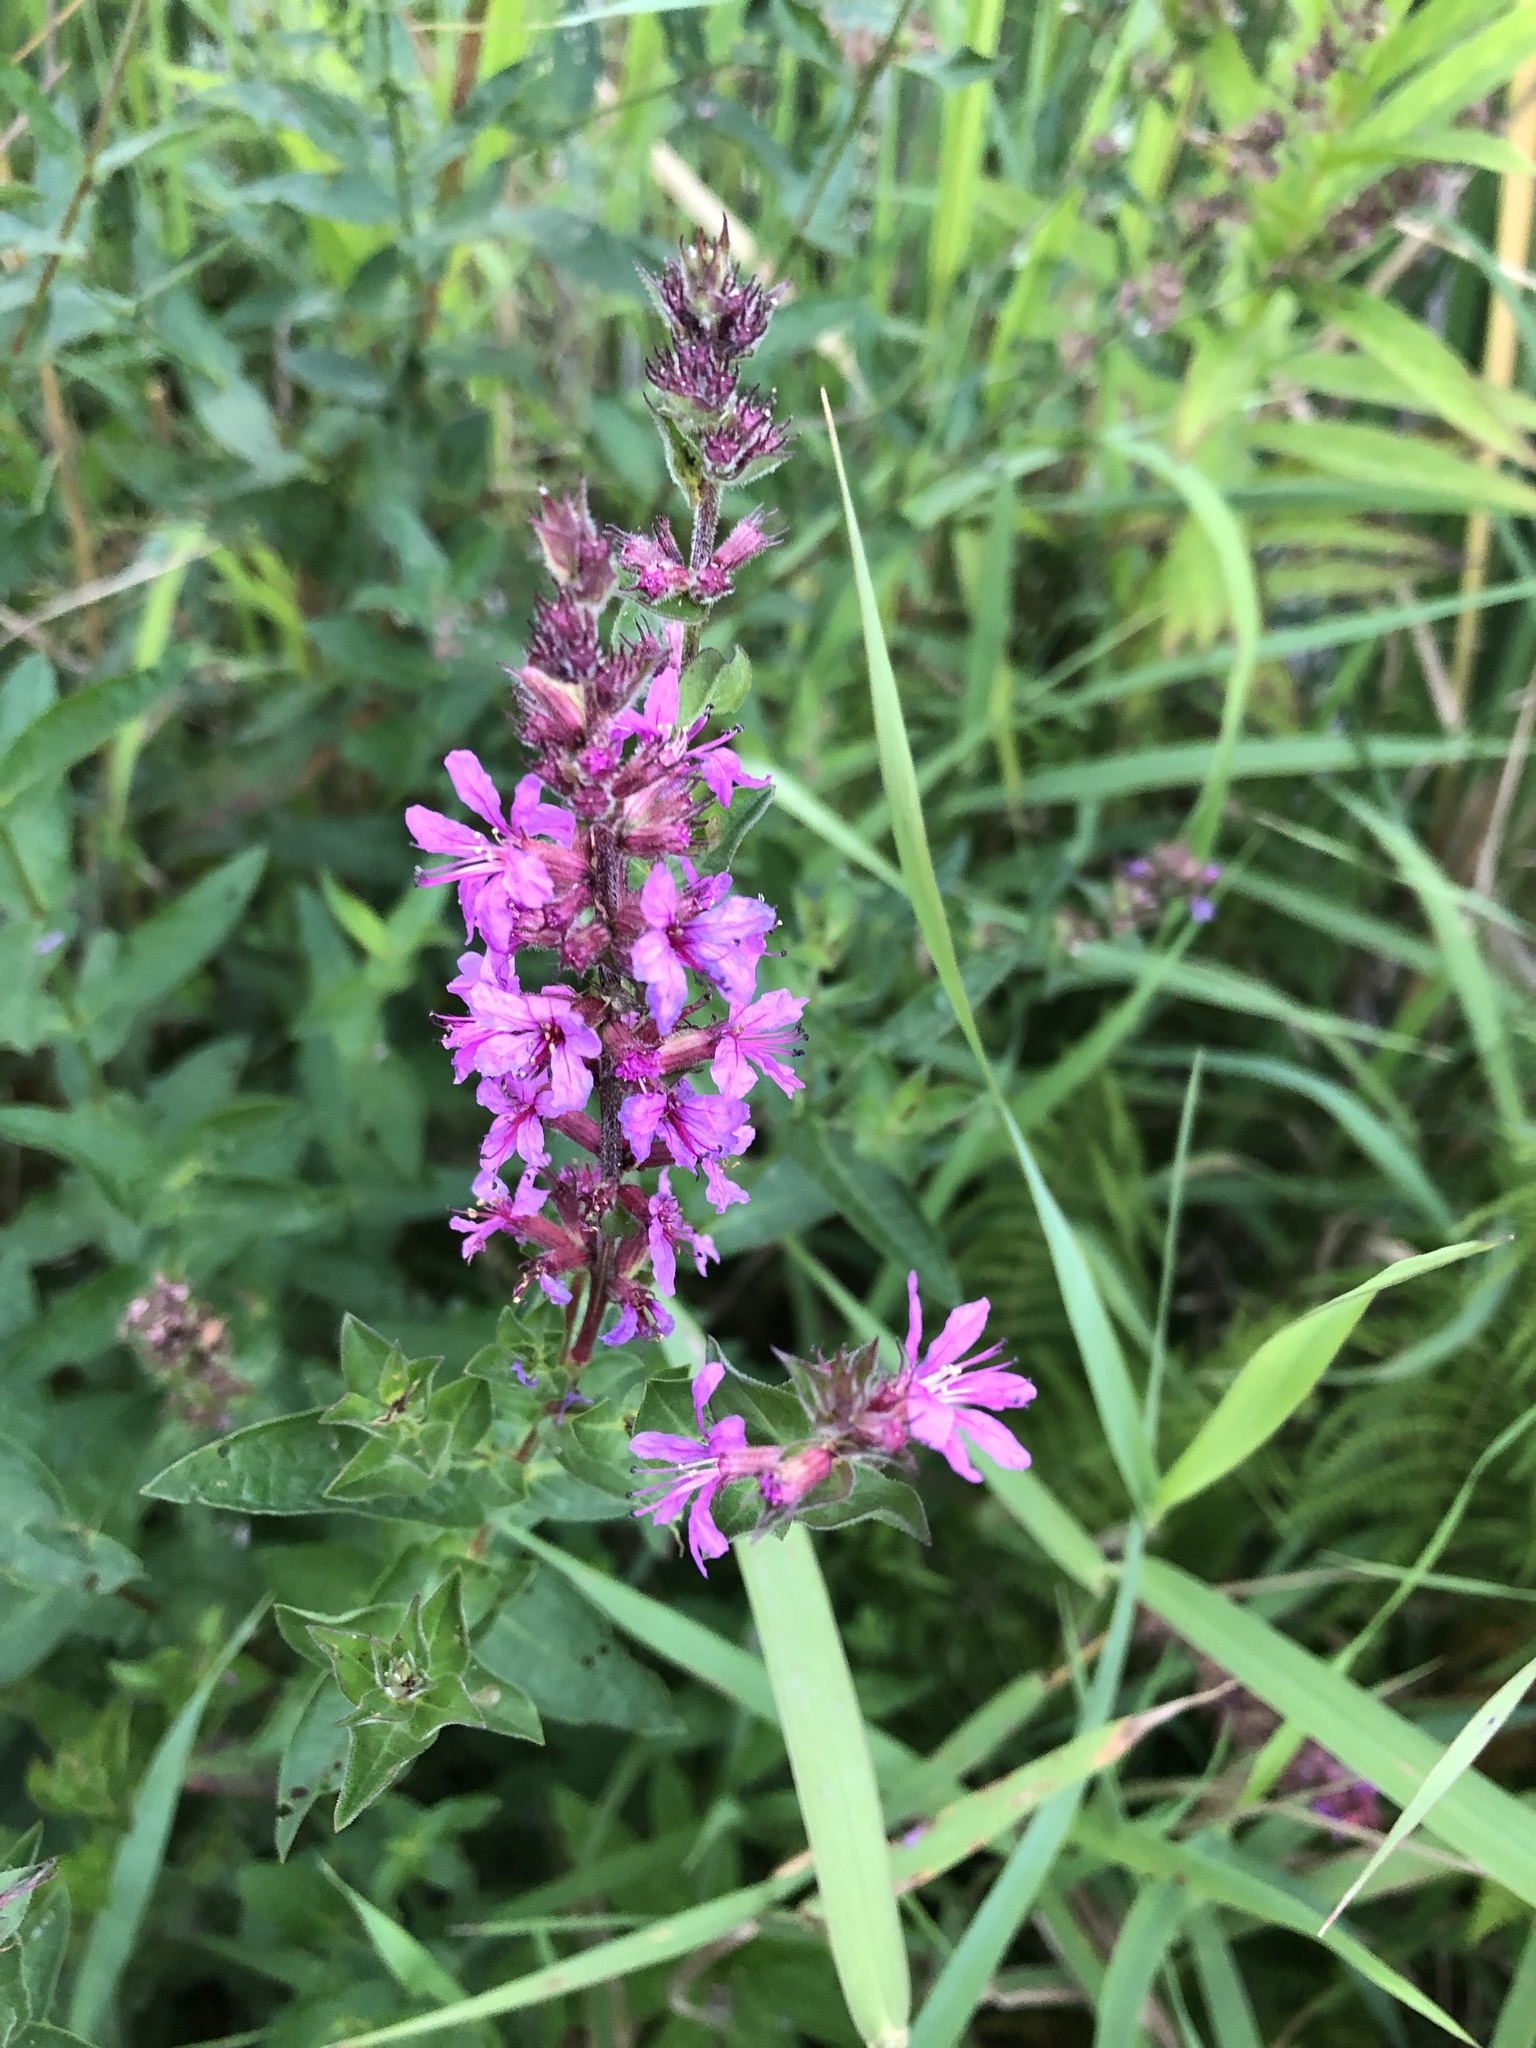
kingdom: Plantae
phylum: Tracheophyta
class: Magnoliopsida
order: Myrtales
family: Lythraceae
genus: Lythrum
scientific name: Lythrum salicaria
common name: Purple loosestrife
